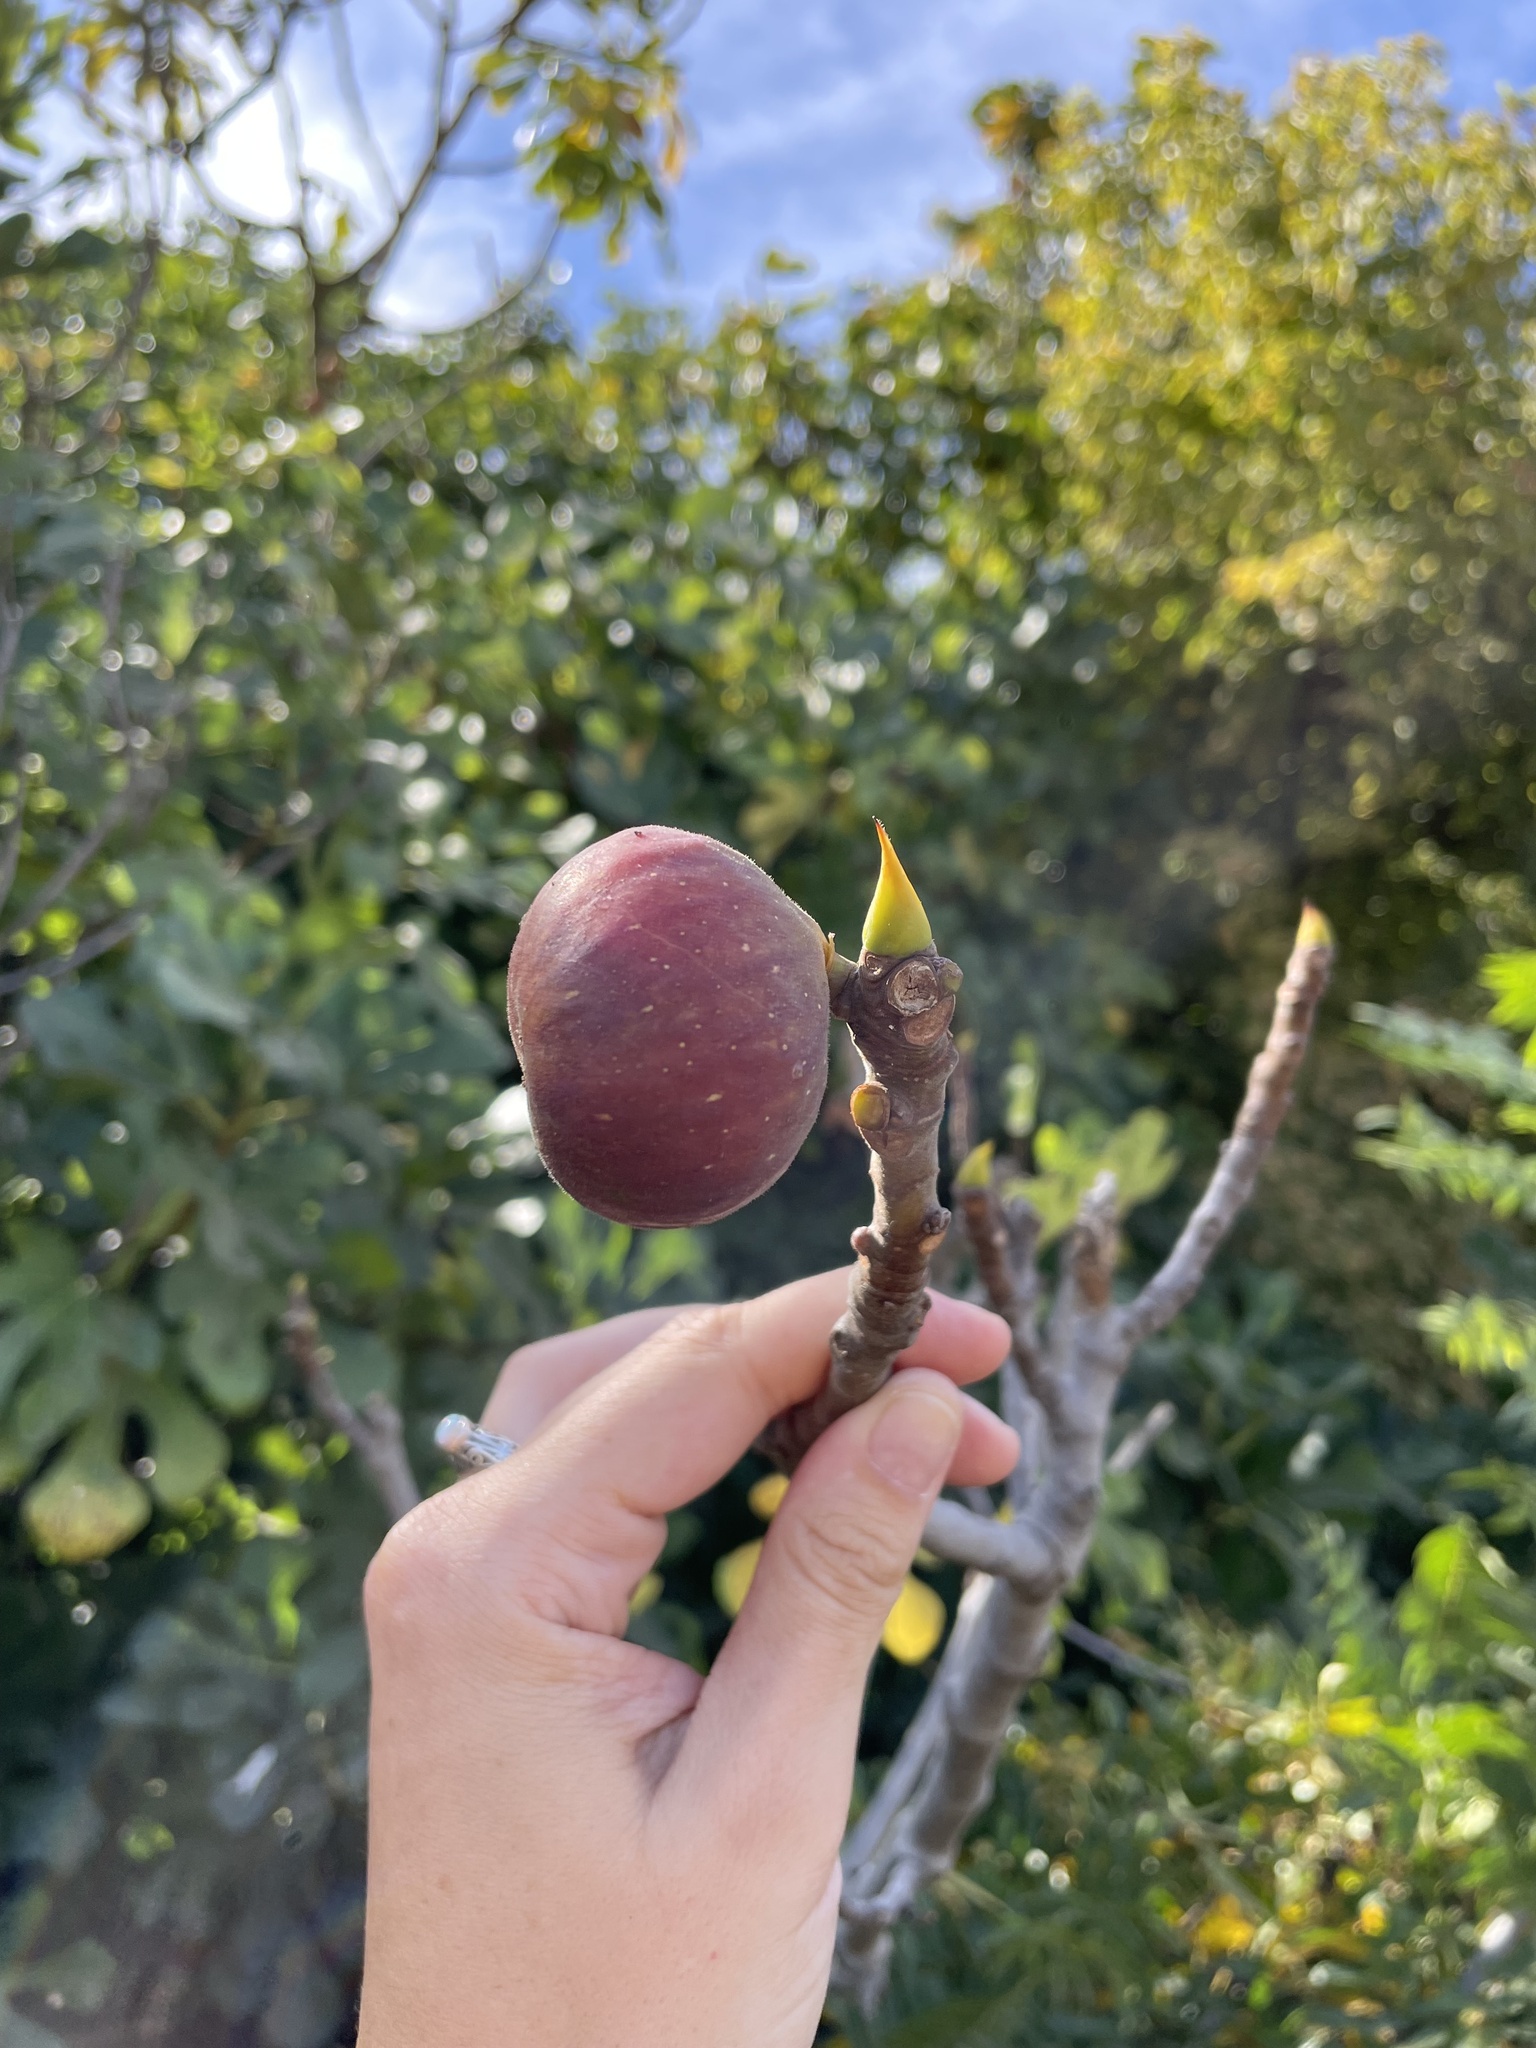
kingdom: Plantae
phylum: Tracheophyta
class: Magnoliopsida
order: Rosales
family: Moraceae
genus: Ficus
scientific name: Ficus carica
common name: Fig
